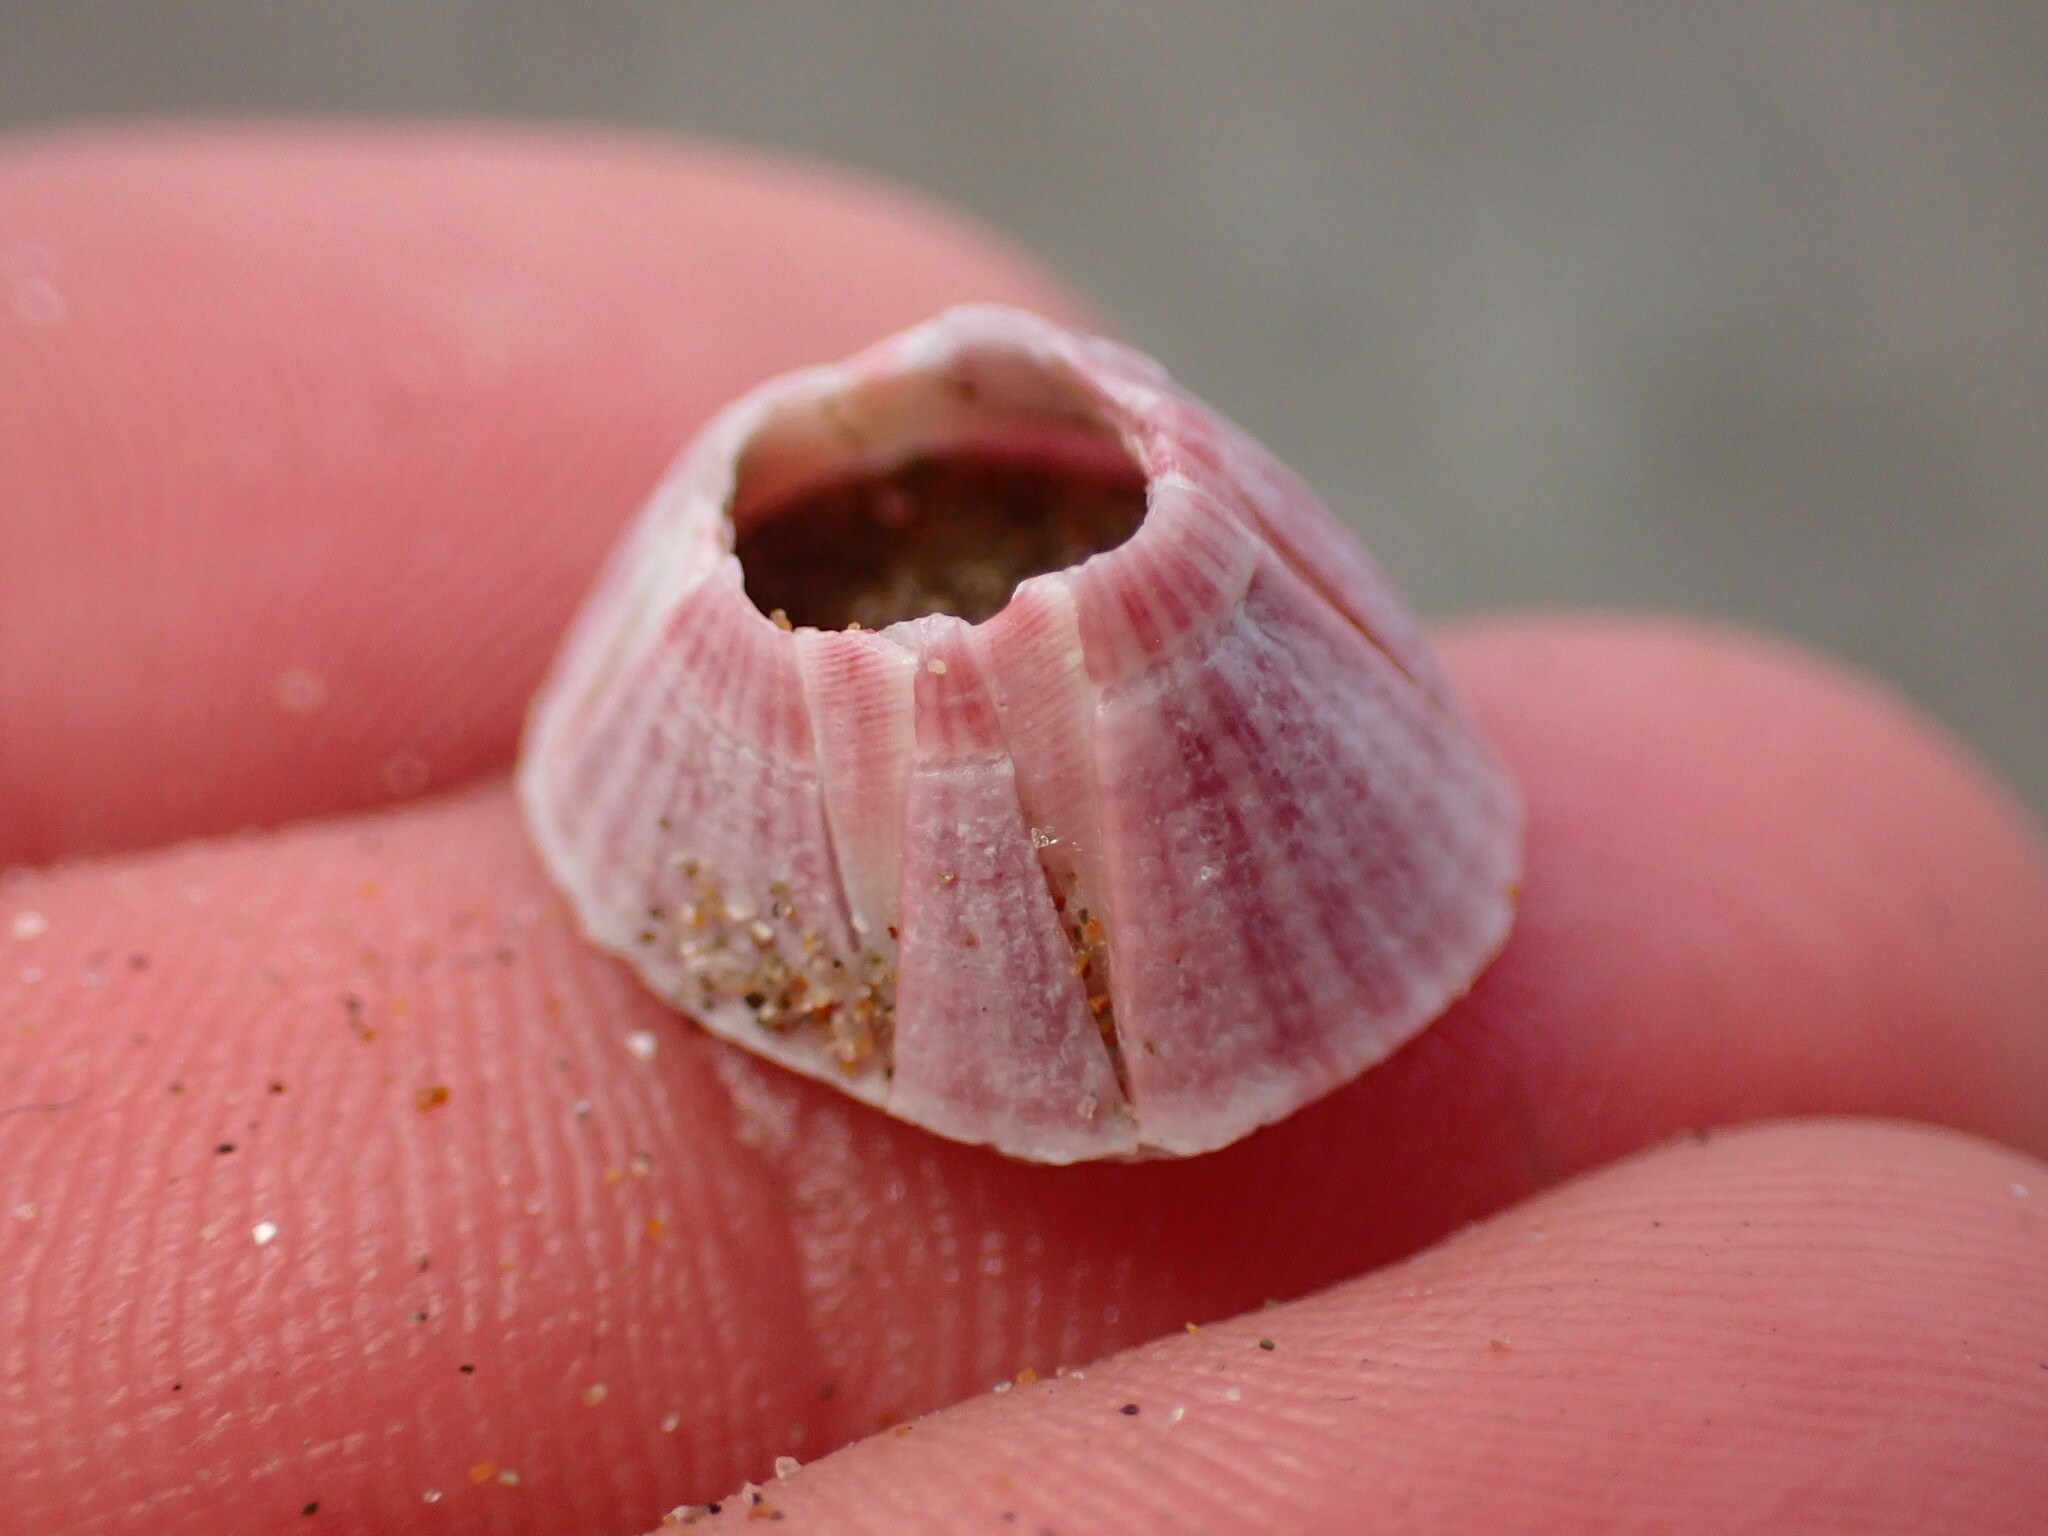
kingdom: Animalia
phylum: Arthropoda
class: Maxillopoda
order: Sessilia
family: Balanidae
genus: Paraconcavus
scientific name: Paraconcavus pacificus
